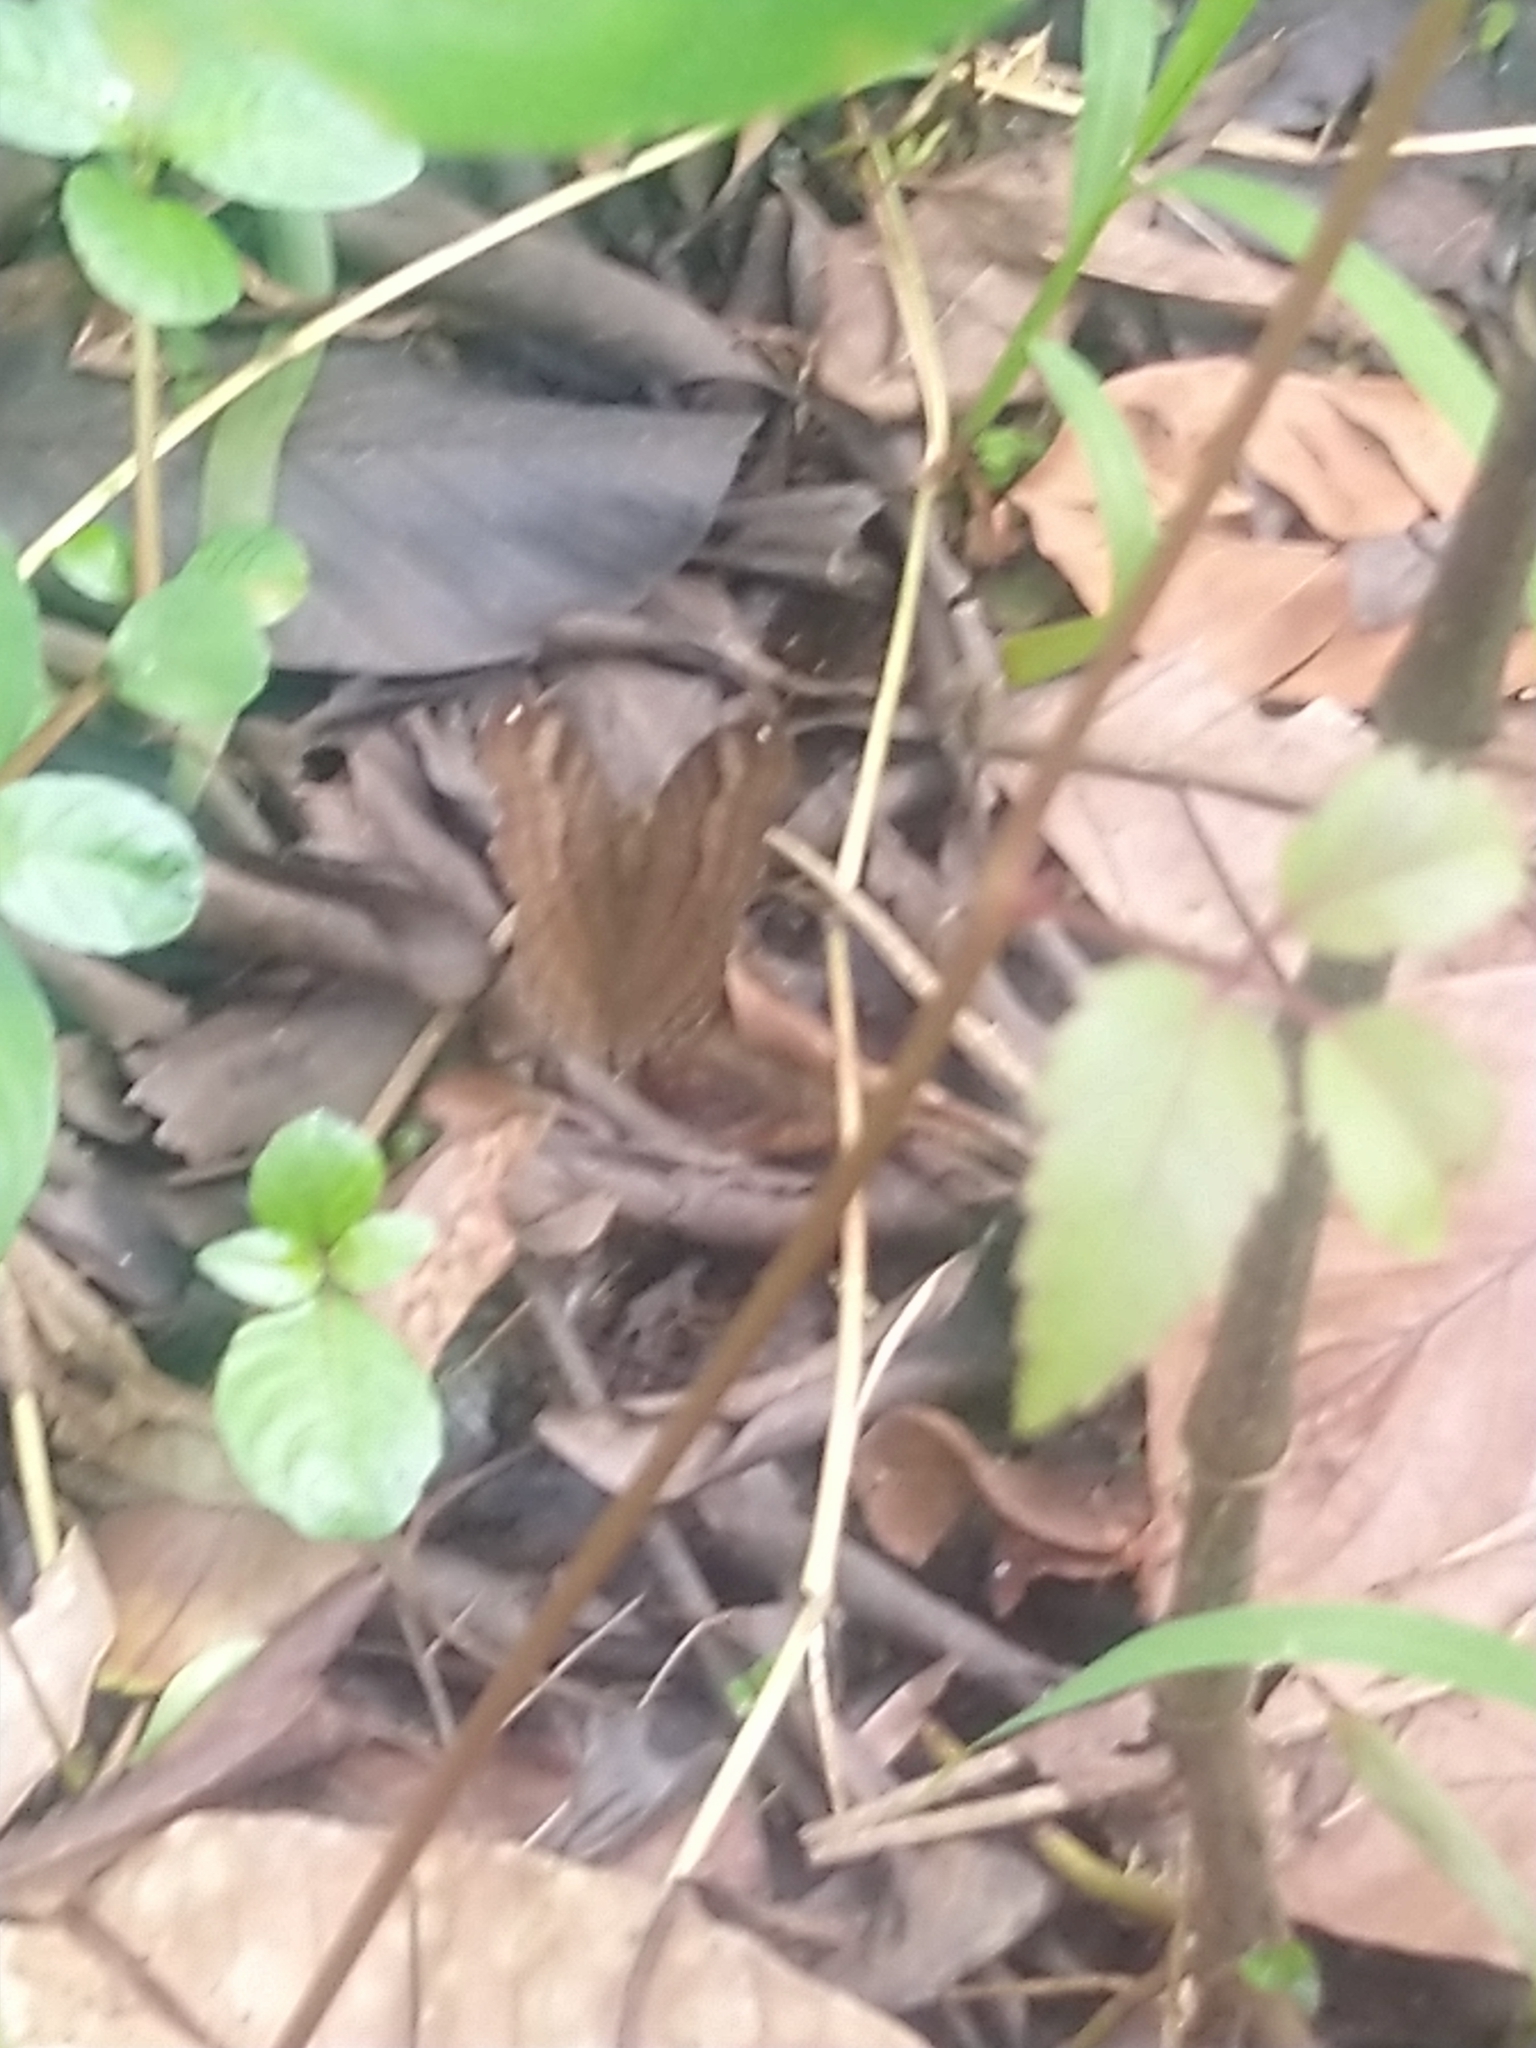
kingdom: Animalia
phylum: Arthropoda
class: Insecta
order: Lepidoptera
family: Nymphalidae
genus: Junonia
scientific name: Junonia iphita
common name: Chocolate pansy
